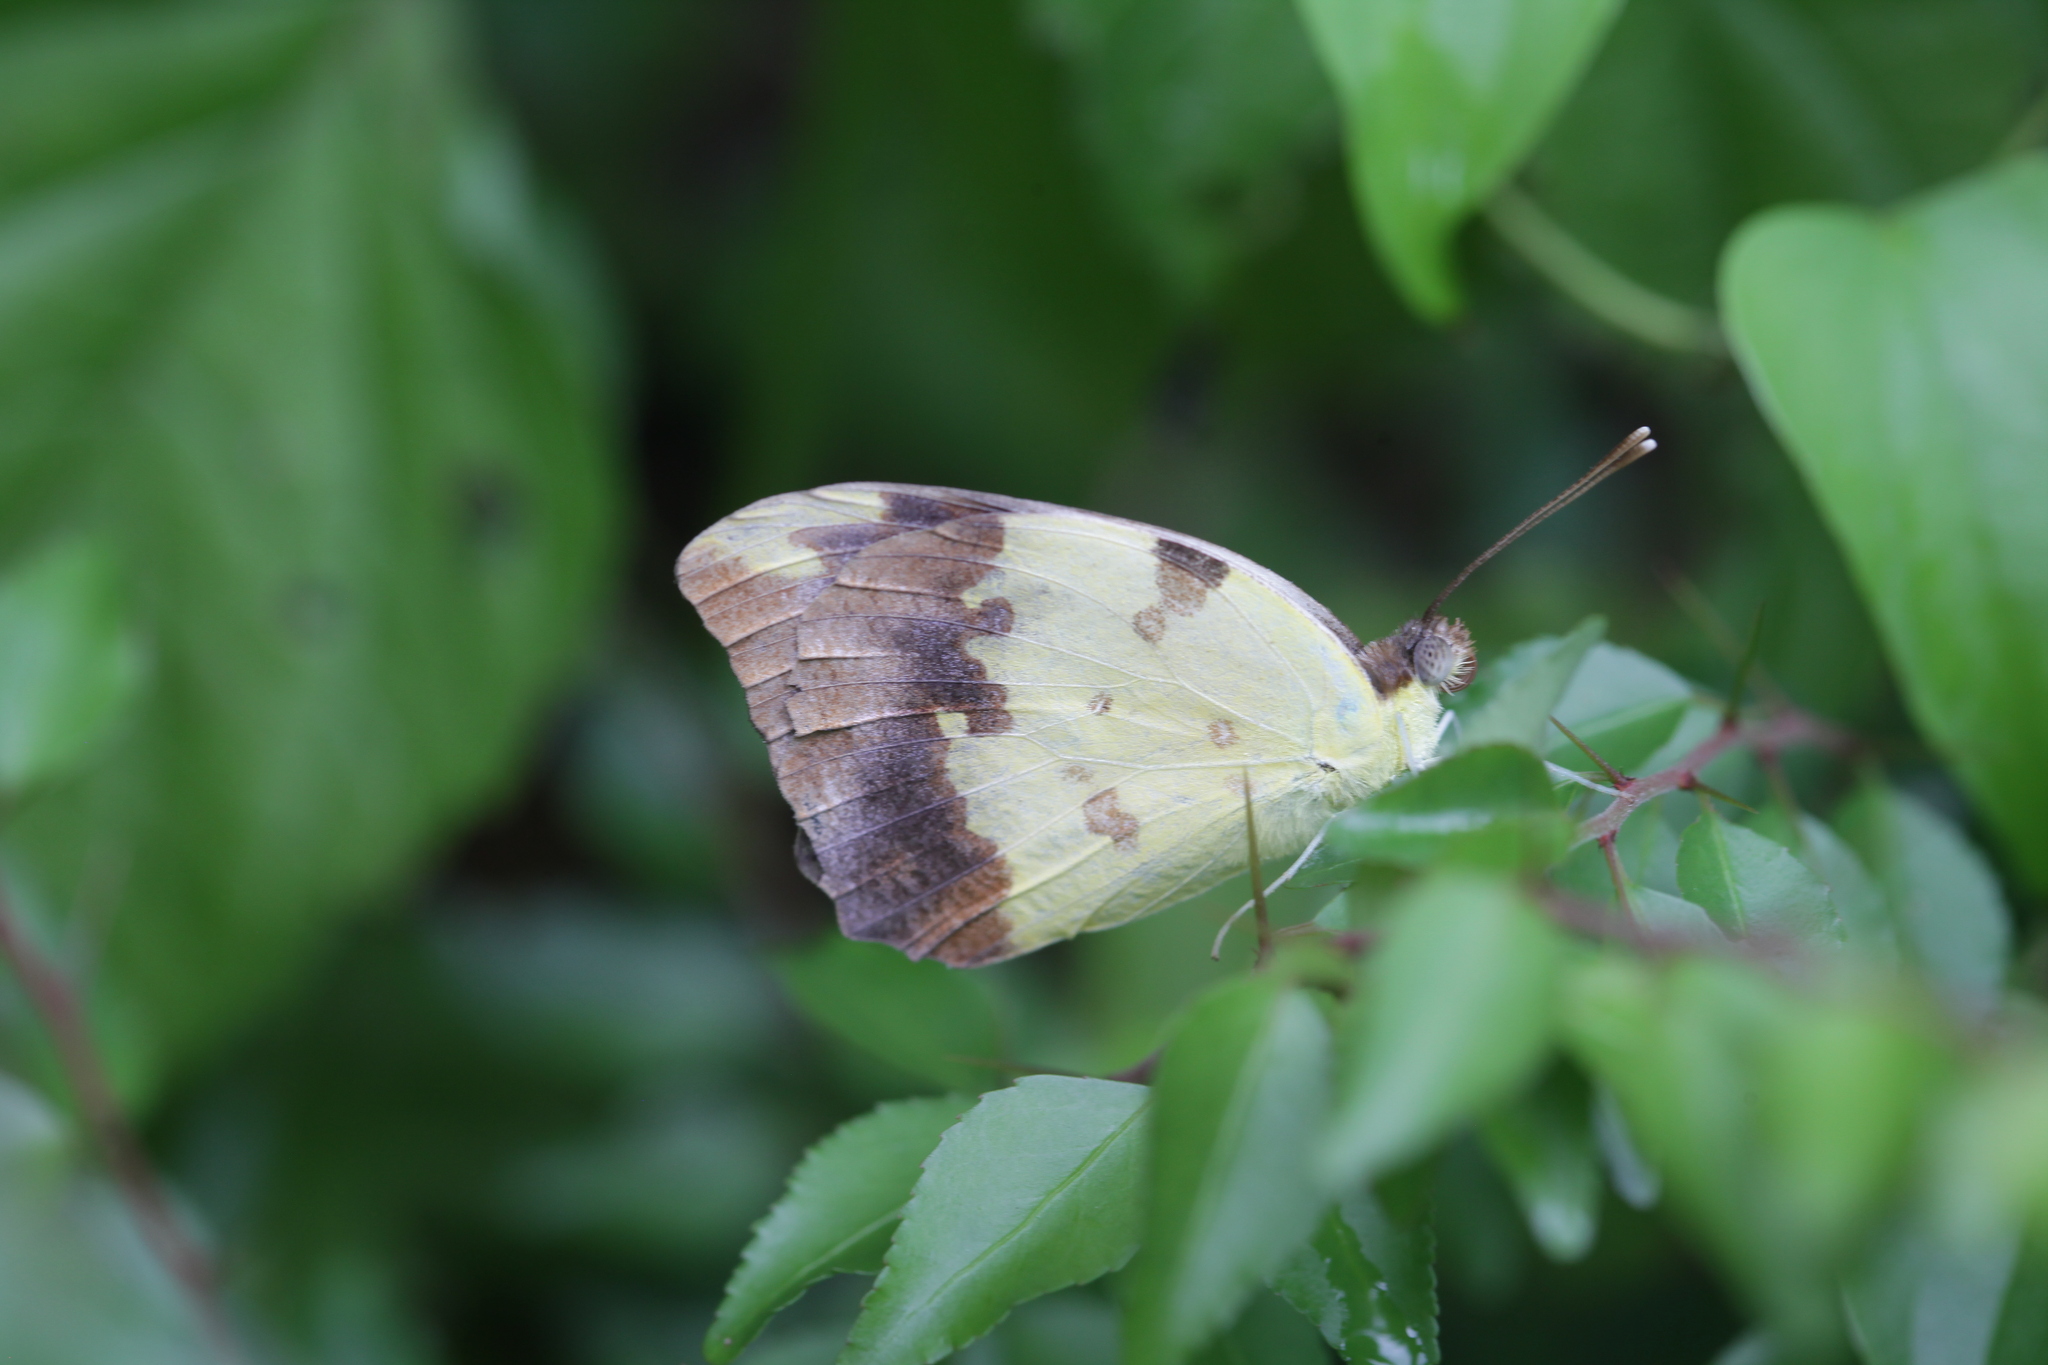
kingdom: Animalia
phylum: Arthropoda
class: Insecta
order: Lepidoptera
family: Pieridae
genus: Belenois
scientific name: Belenois creona
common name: African caper white
